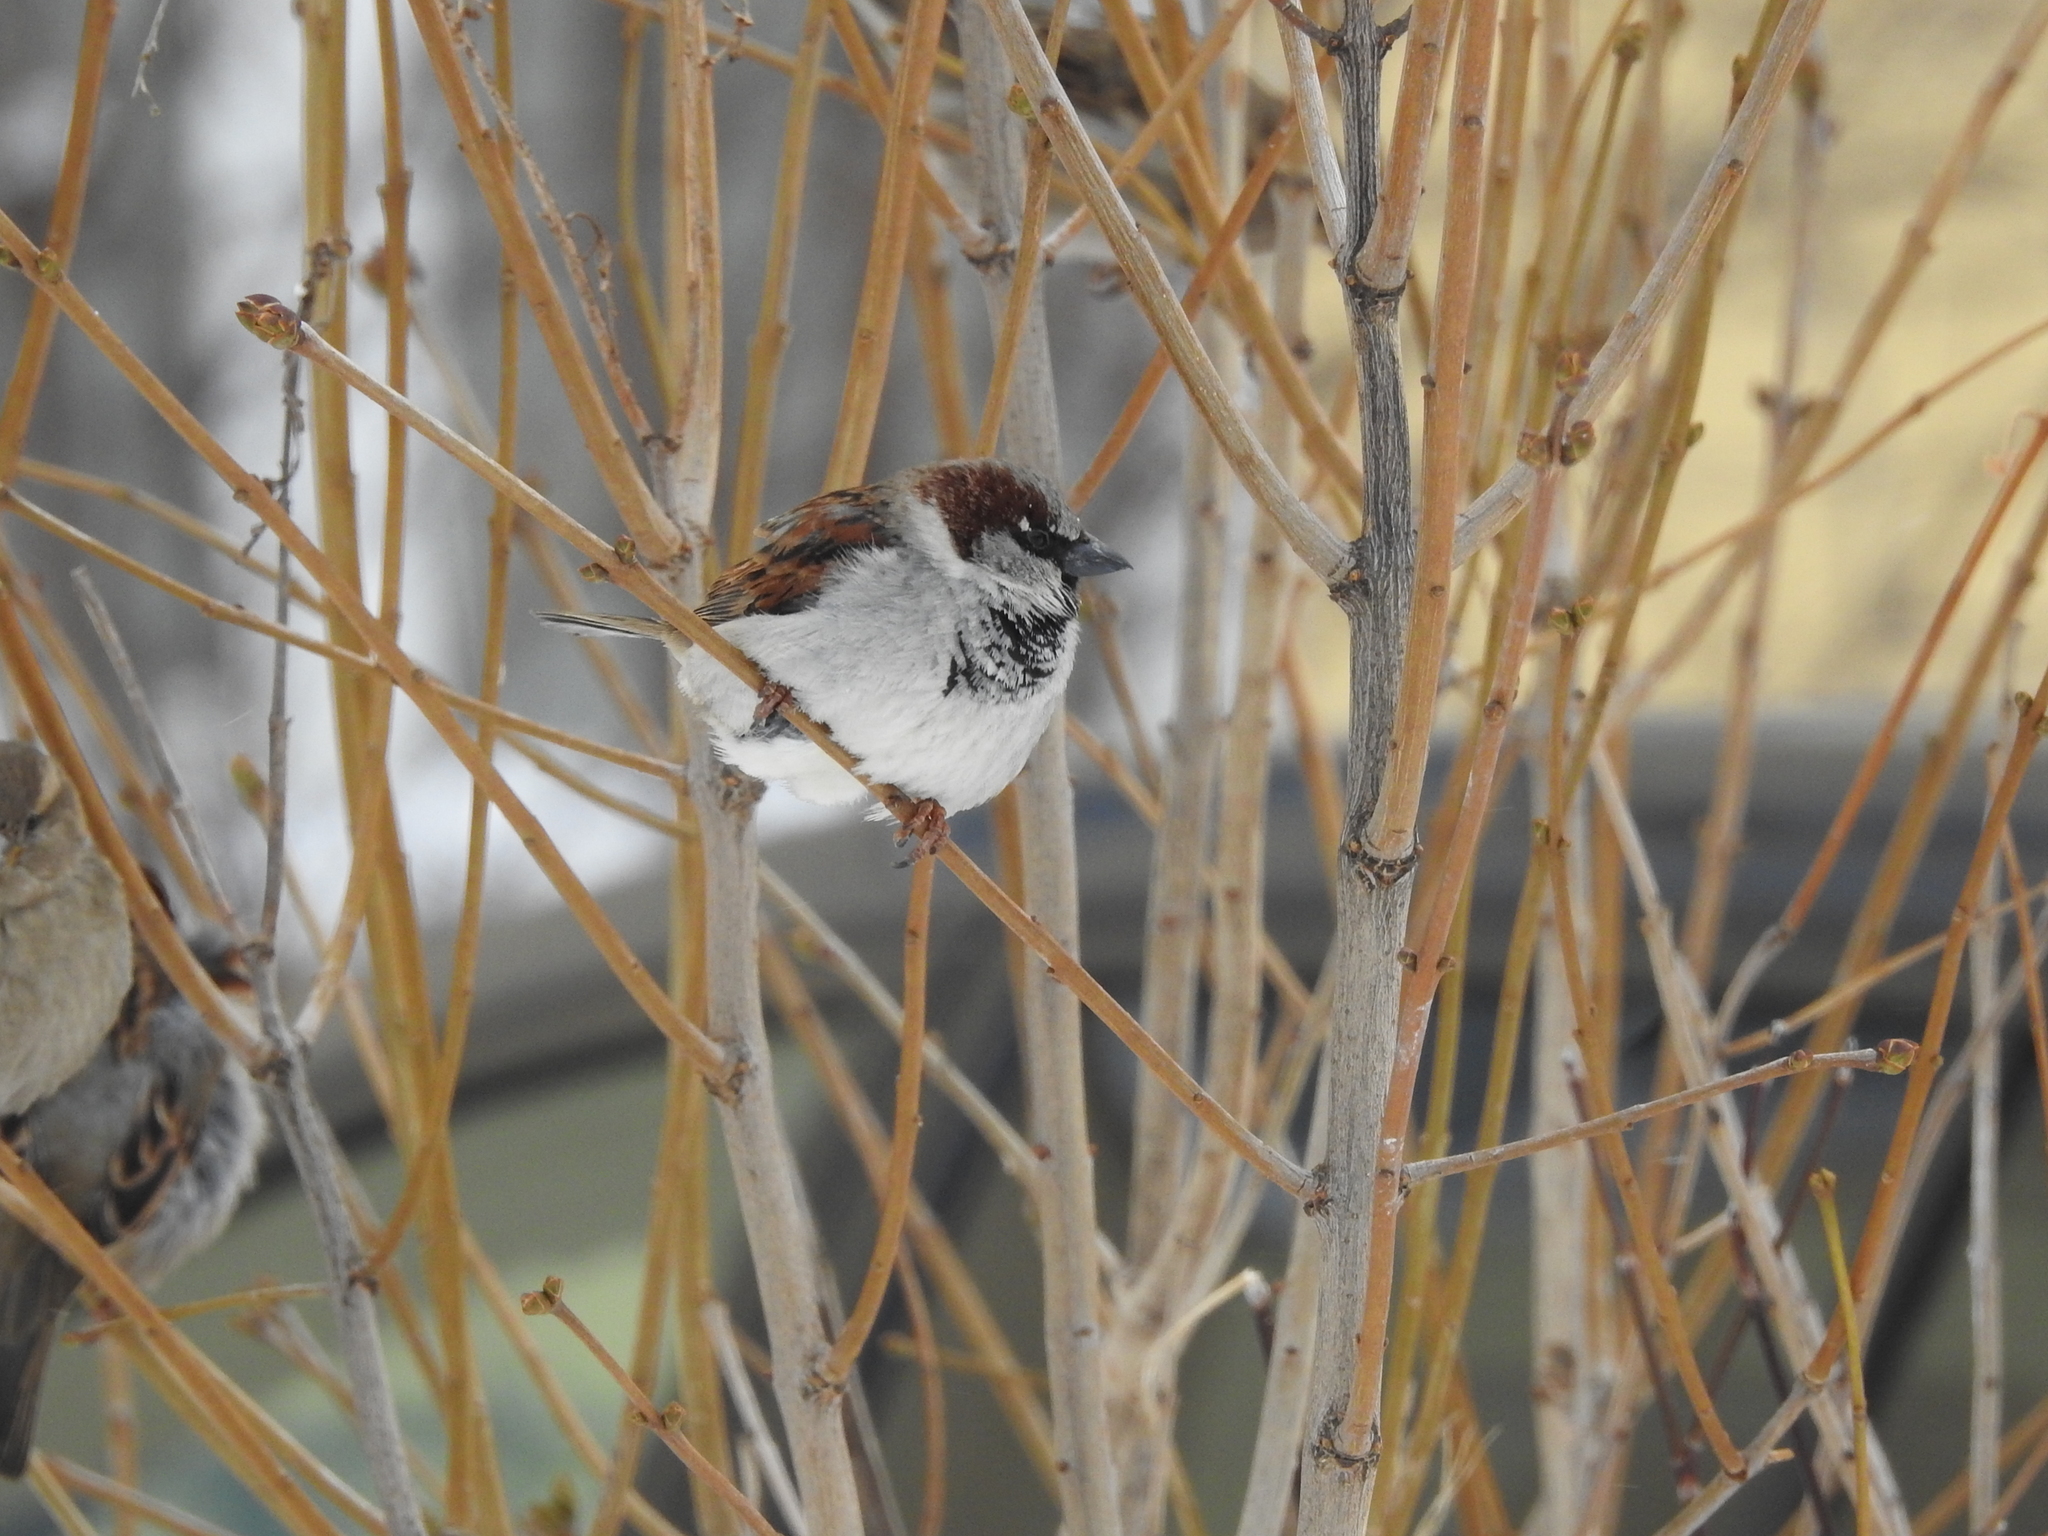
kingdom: Animalia
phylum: Chordata
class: Aves
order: Passeriformes
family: Passeridae
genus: Passer
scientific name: Passer domesticus
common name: House sparrow
